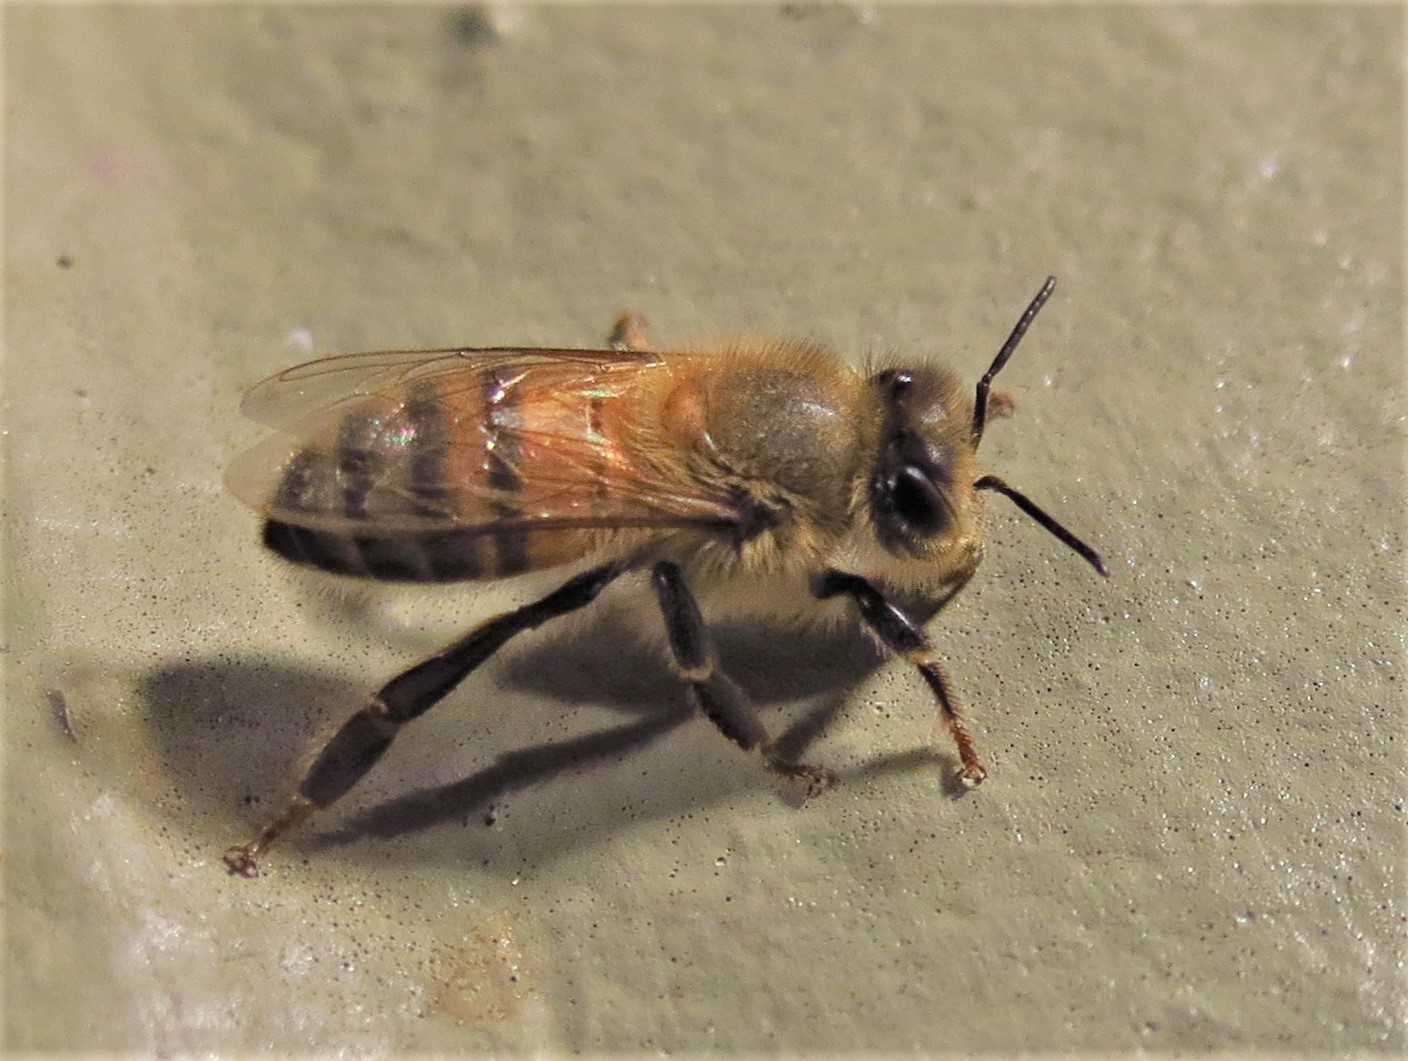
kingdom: Animalia
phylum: Arthropoda
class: Insecta
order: Hymenoptera
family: Apidae
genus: Apis
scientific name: Apis mellifera
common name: Honey bee
